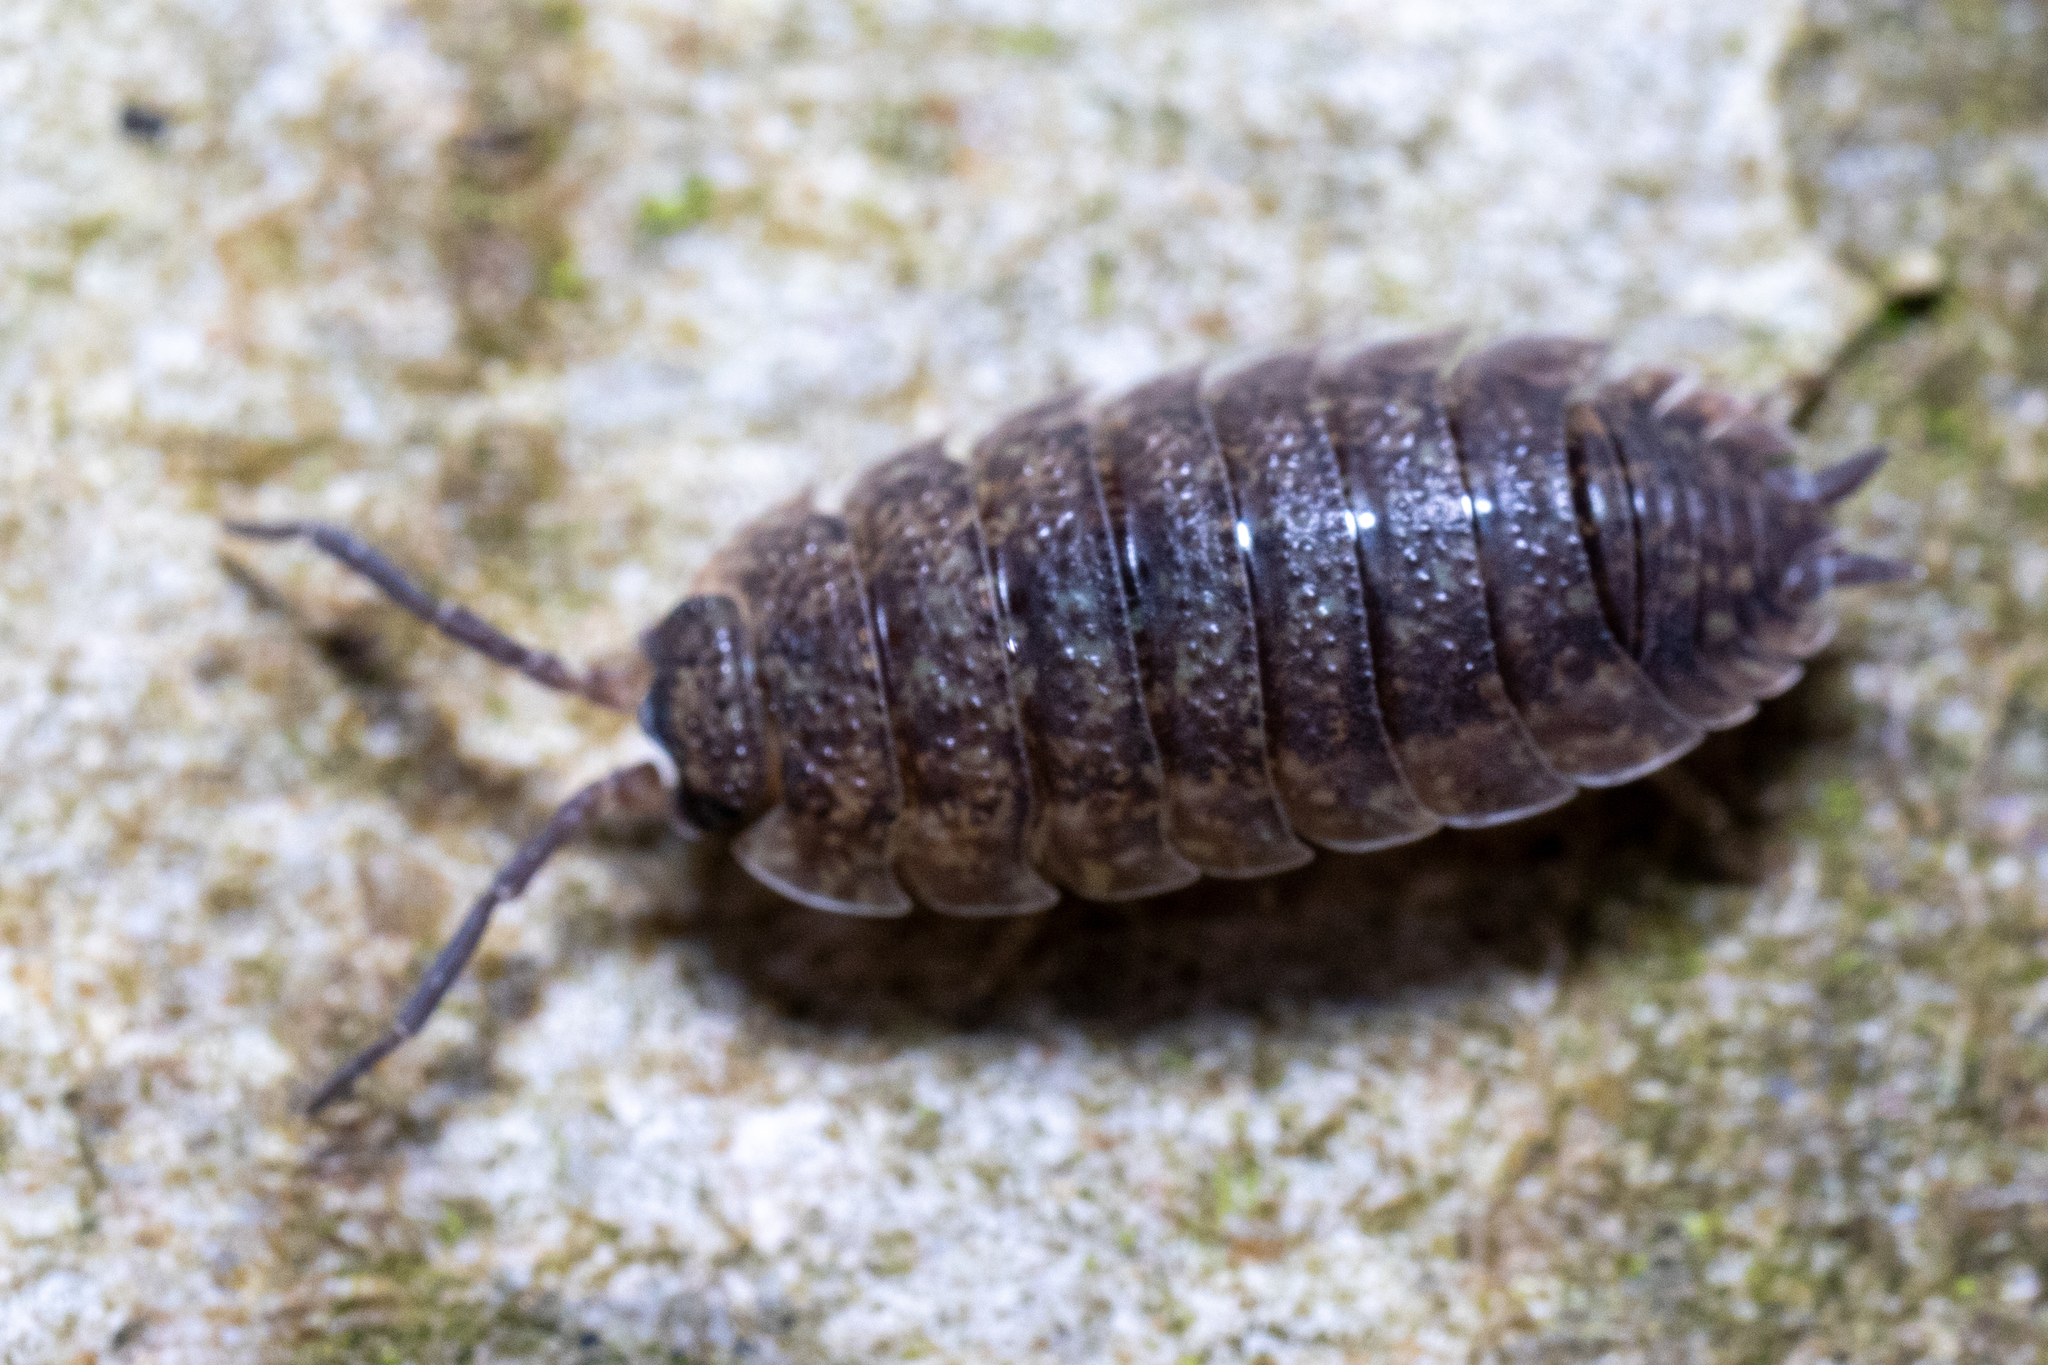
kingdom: Animalia
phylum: Arthropoda
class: Malacostraca
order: Isopoda
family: Porcellionidae
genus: Porcellio
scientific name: Porcellio scaber
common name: Common rough woodlouse
